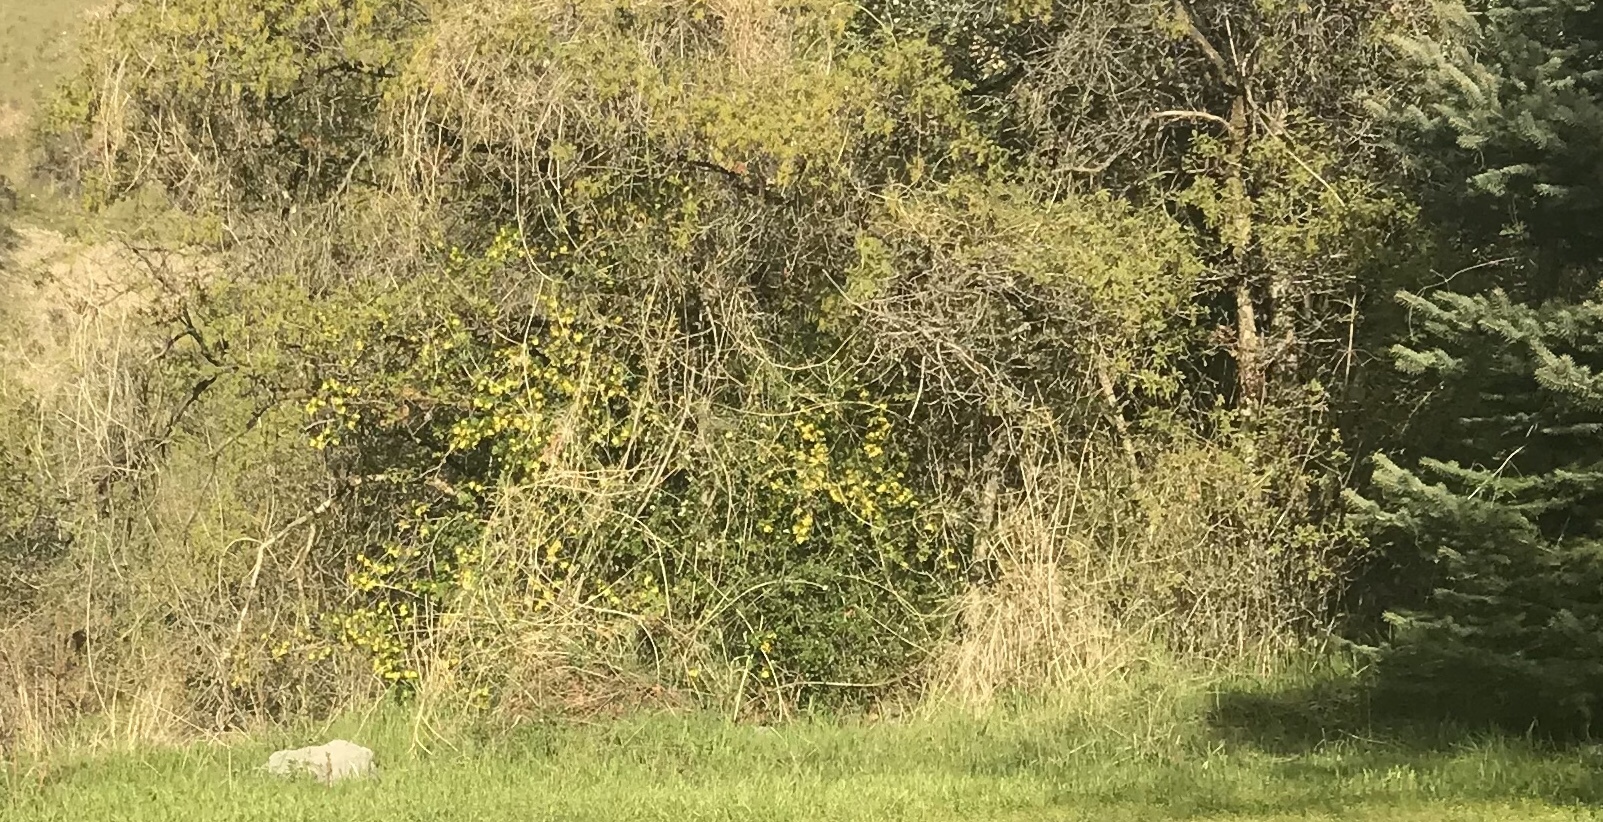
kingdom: Plantae
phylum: Tracheophyta
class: Magnoliopsida
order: Saxifragales
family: Grossulariaceae
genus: Ribes
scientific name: Ribes aureum
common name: Golden currant
